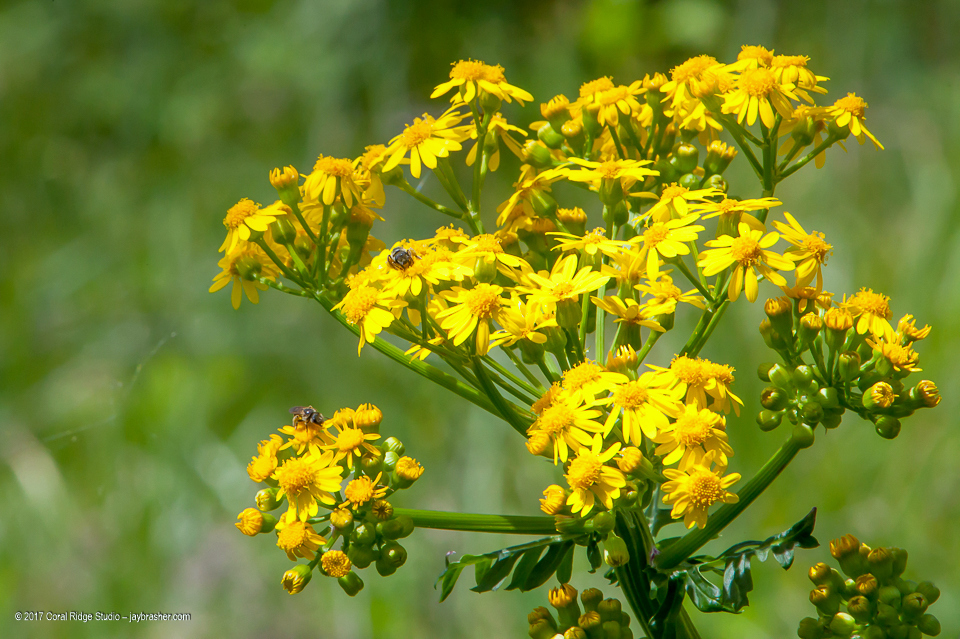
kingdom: Plantae
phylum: Tracheophyta
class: Magnoliopsida
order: Asterales
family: Asteraceae
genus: Packera
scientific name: Packera glabella
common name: Butterweed
